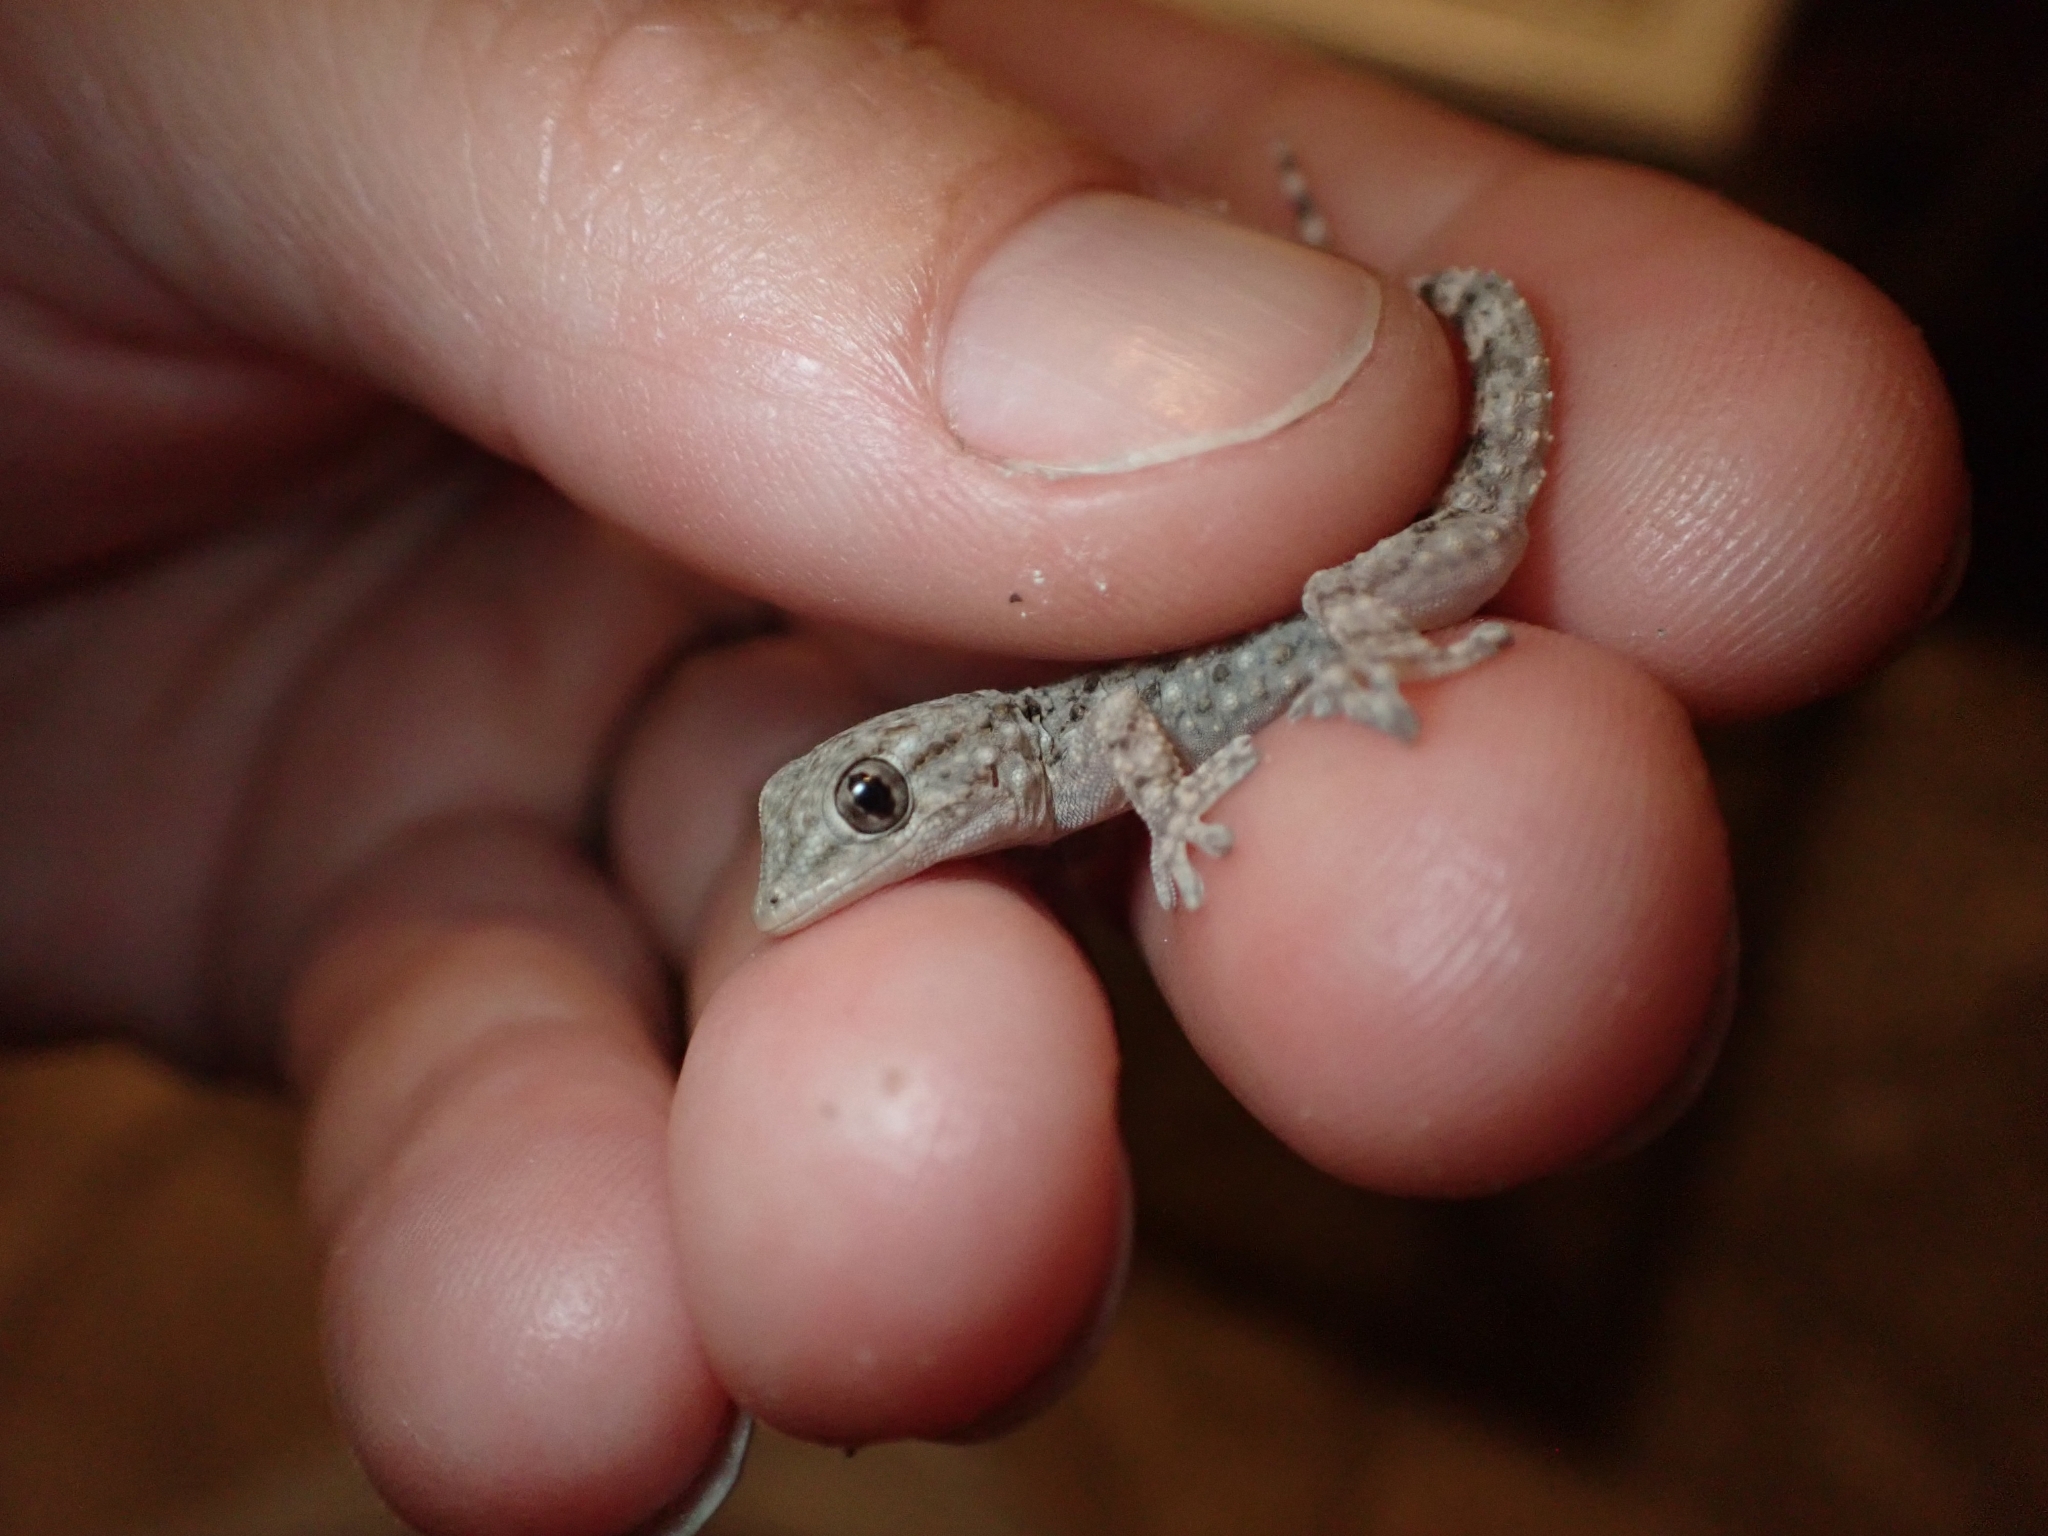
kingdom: Animalia
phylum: Chordata
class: Squamata
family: Phyllodactylidae
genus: Tarentola
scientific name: Tarentola mauritanica
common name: Moorish gecko
